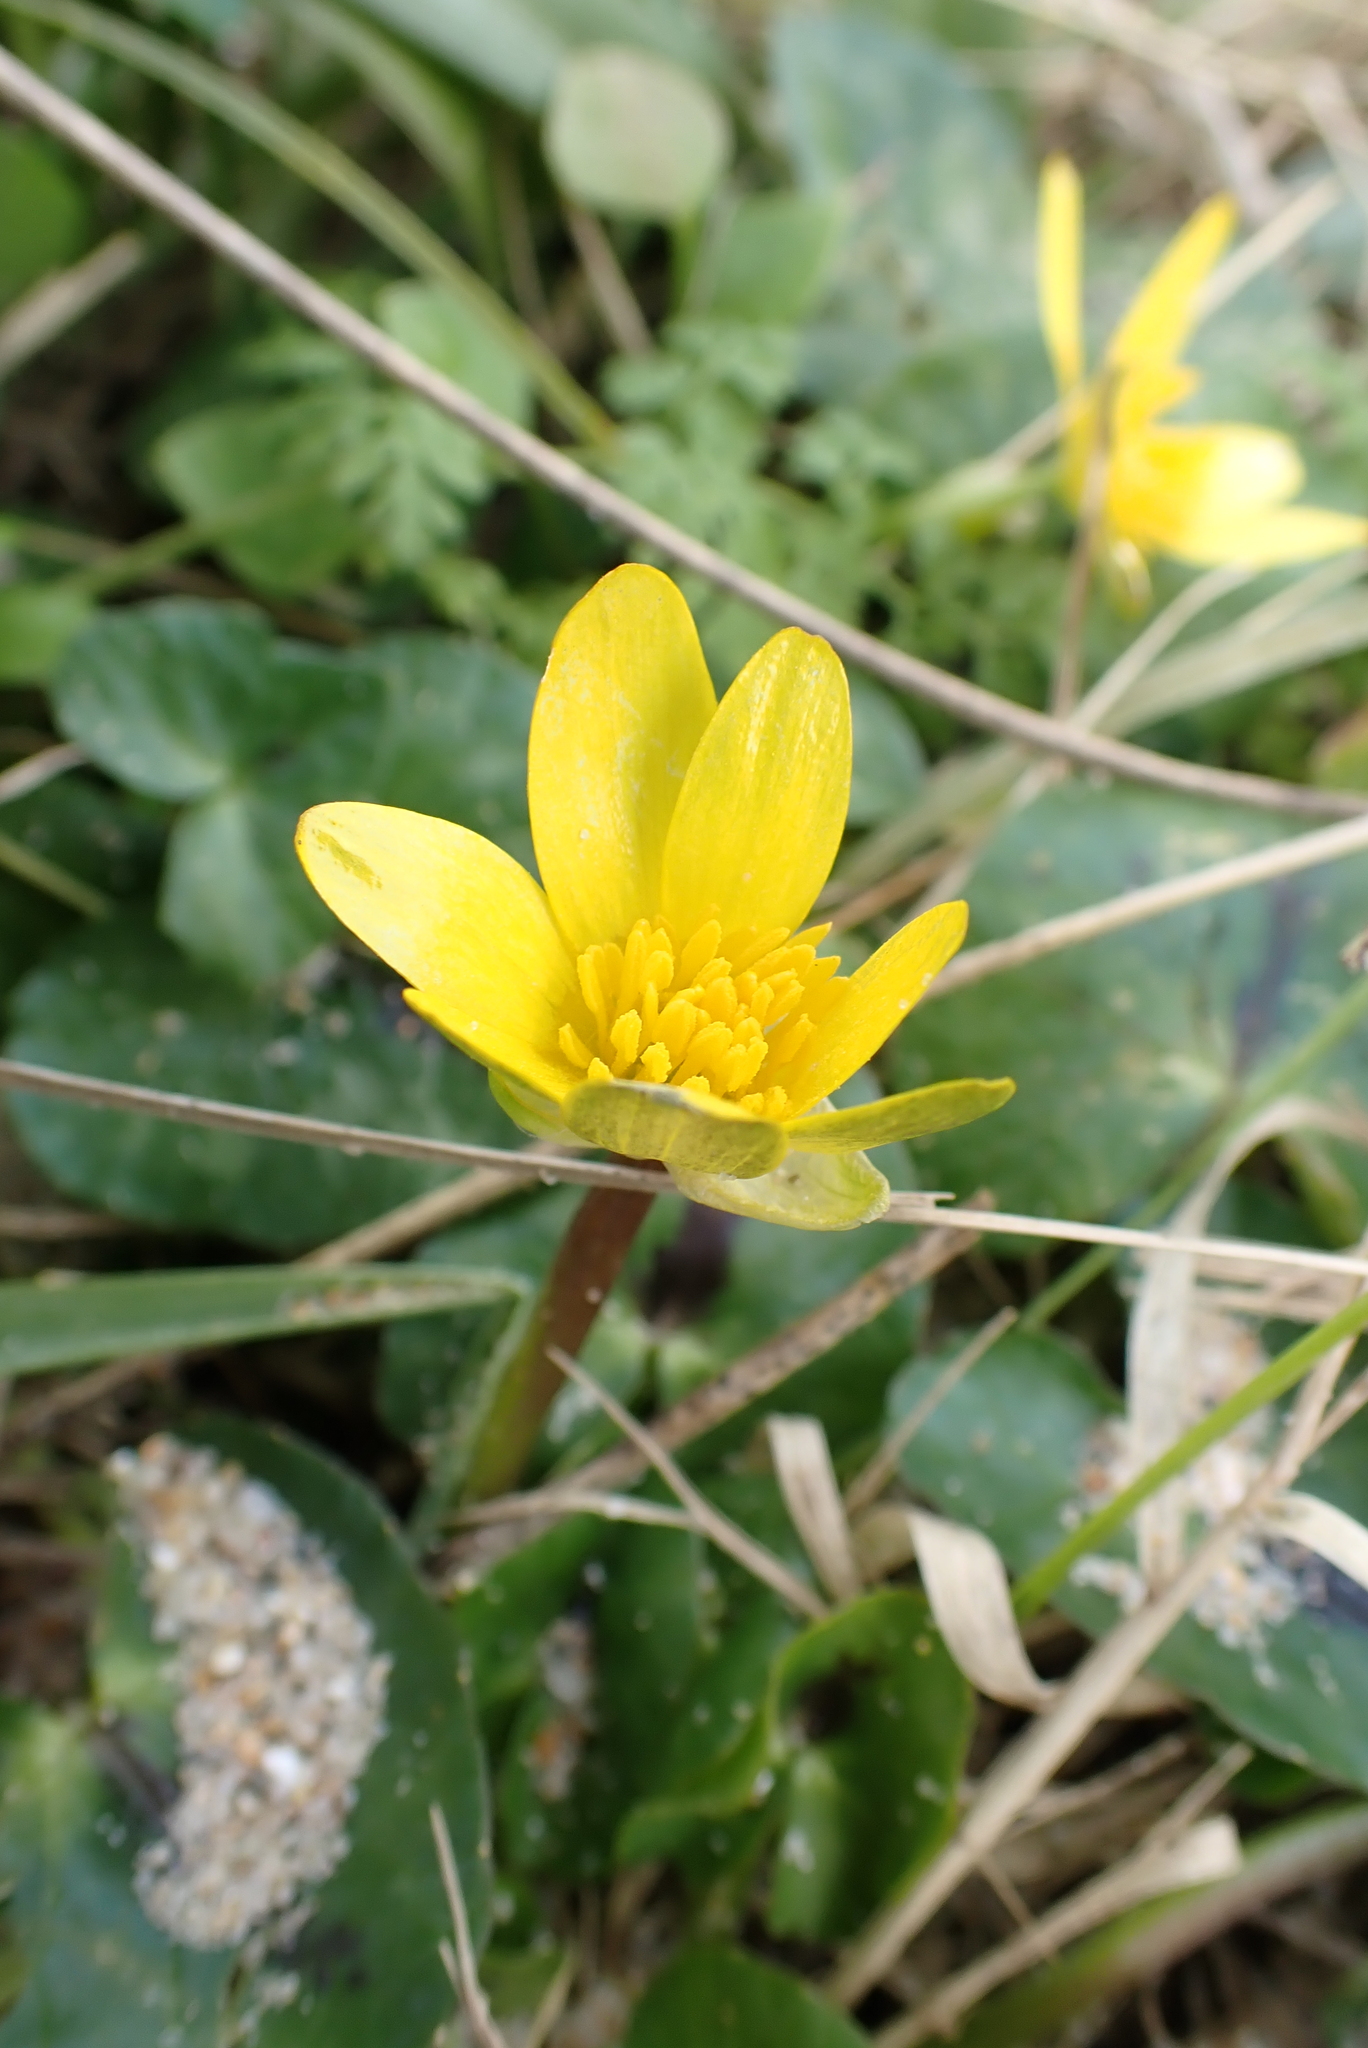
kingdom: Plantae
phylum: Tracheophyta
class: Magnoliopsida
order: Ranunculales
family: Ranunculaceae
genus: Ficaria
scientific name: Ficaria verna
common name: Lesser celandine
